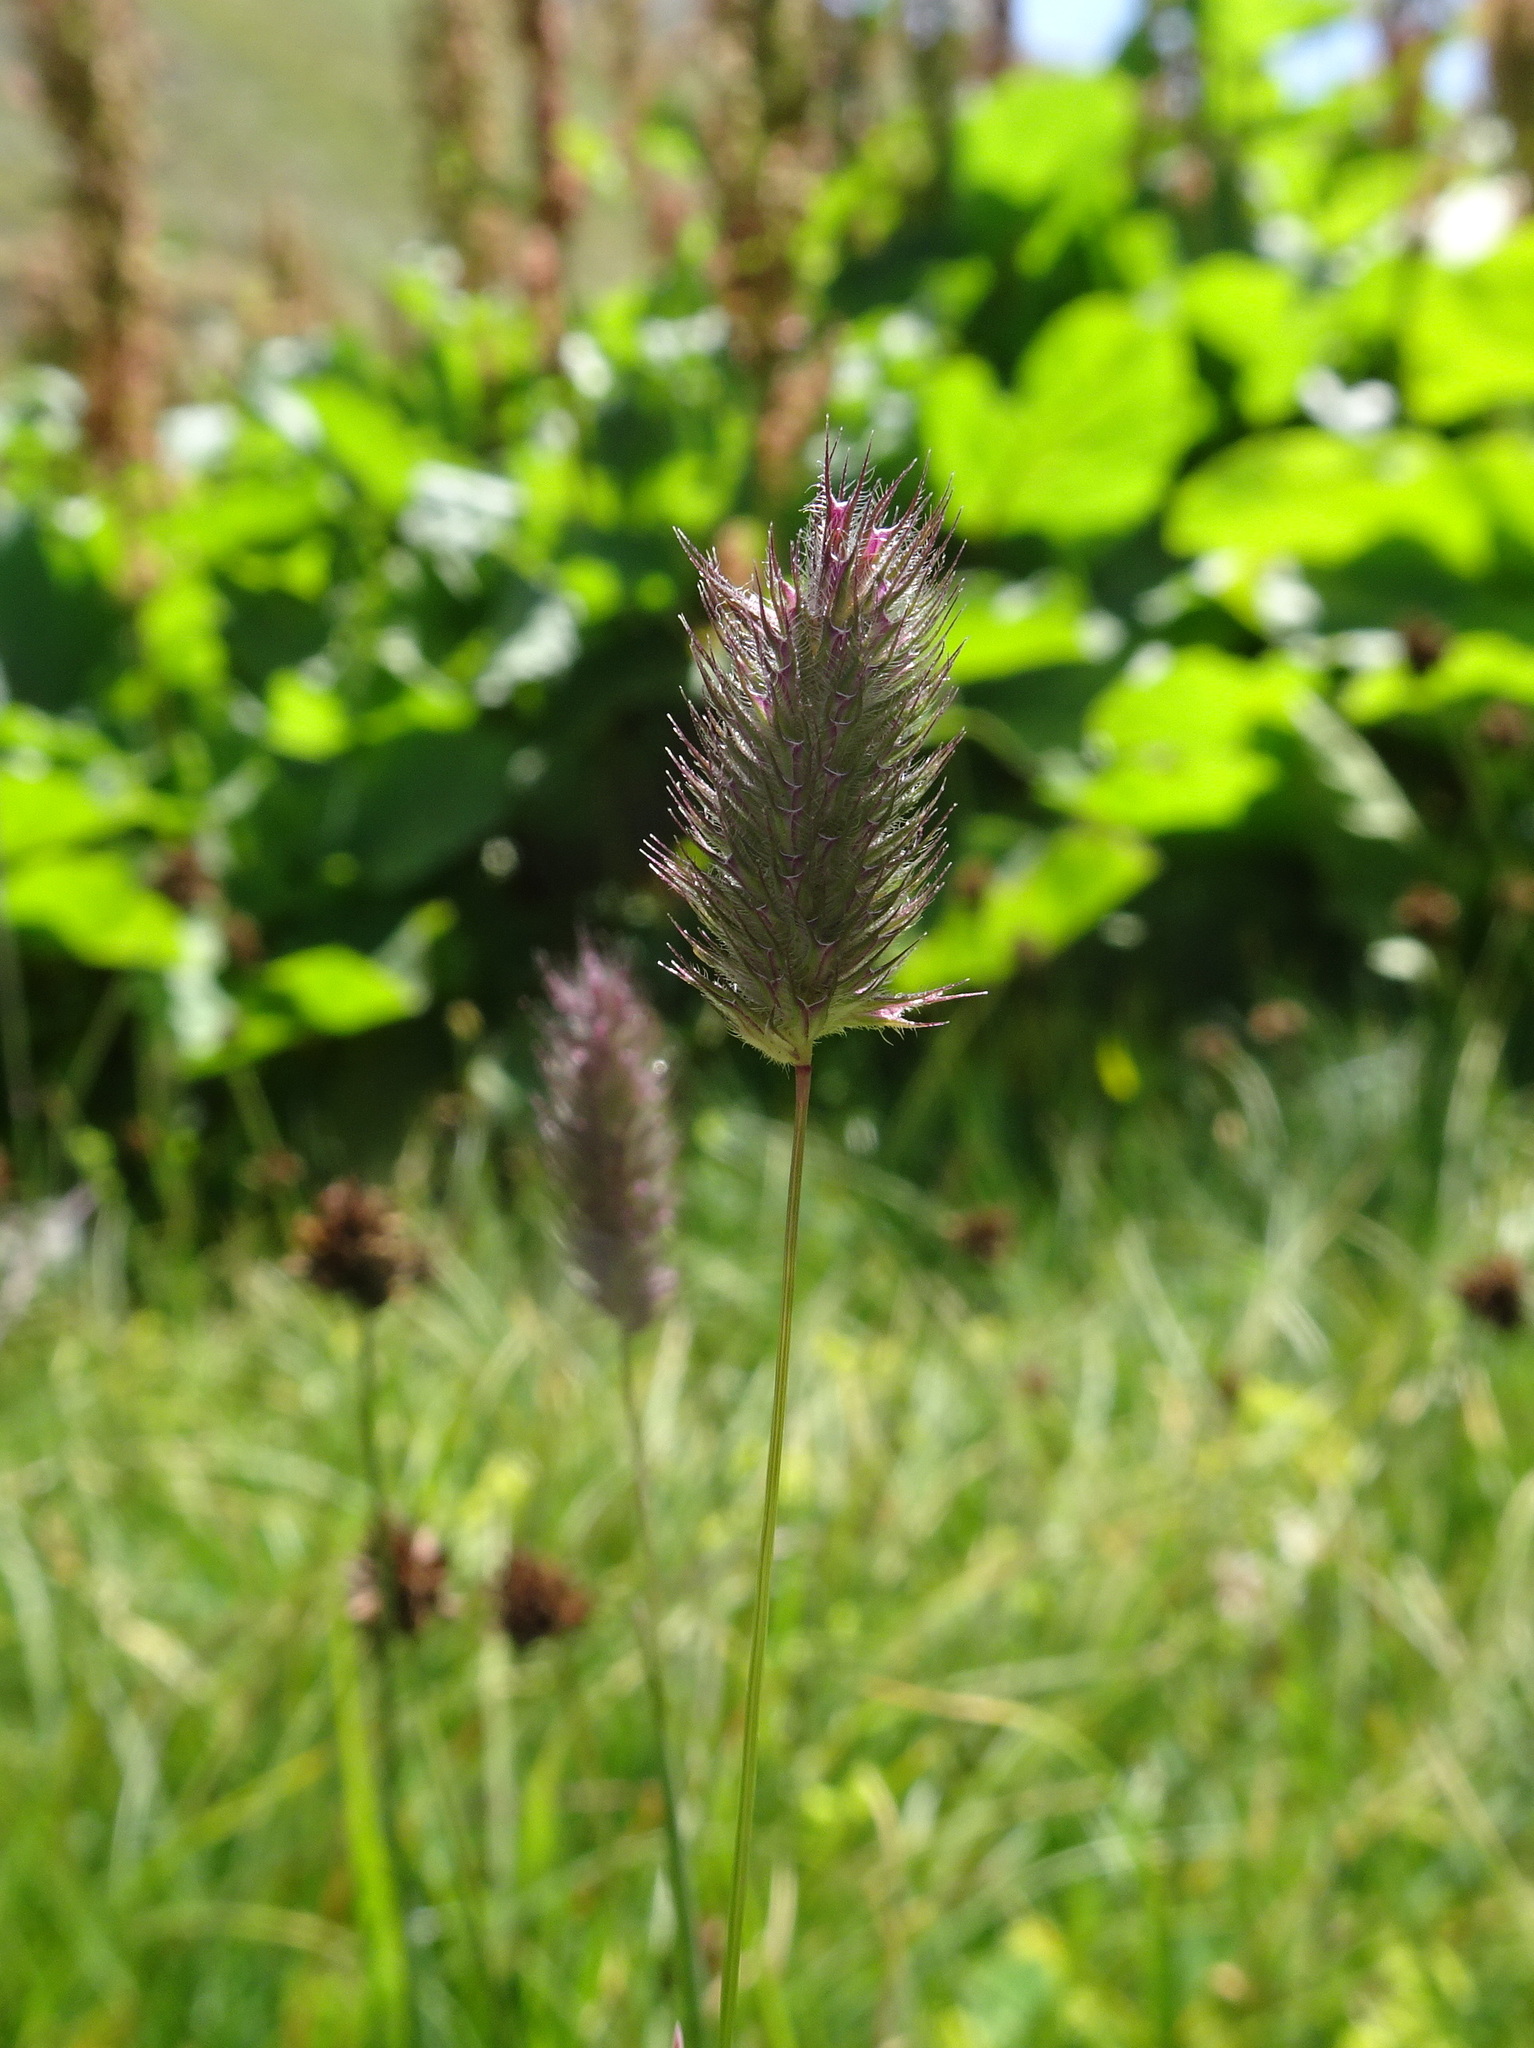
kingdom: Plantae
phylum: Tracheophyta
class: Liliopsida
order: Poales
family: Poaceae
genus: Phleum
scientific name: Phleum alpinum
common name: Alpine cat's-tail
